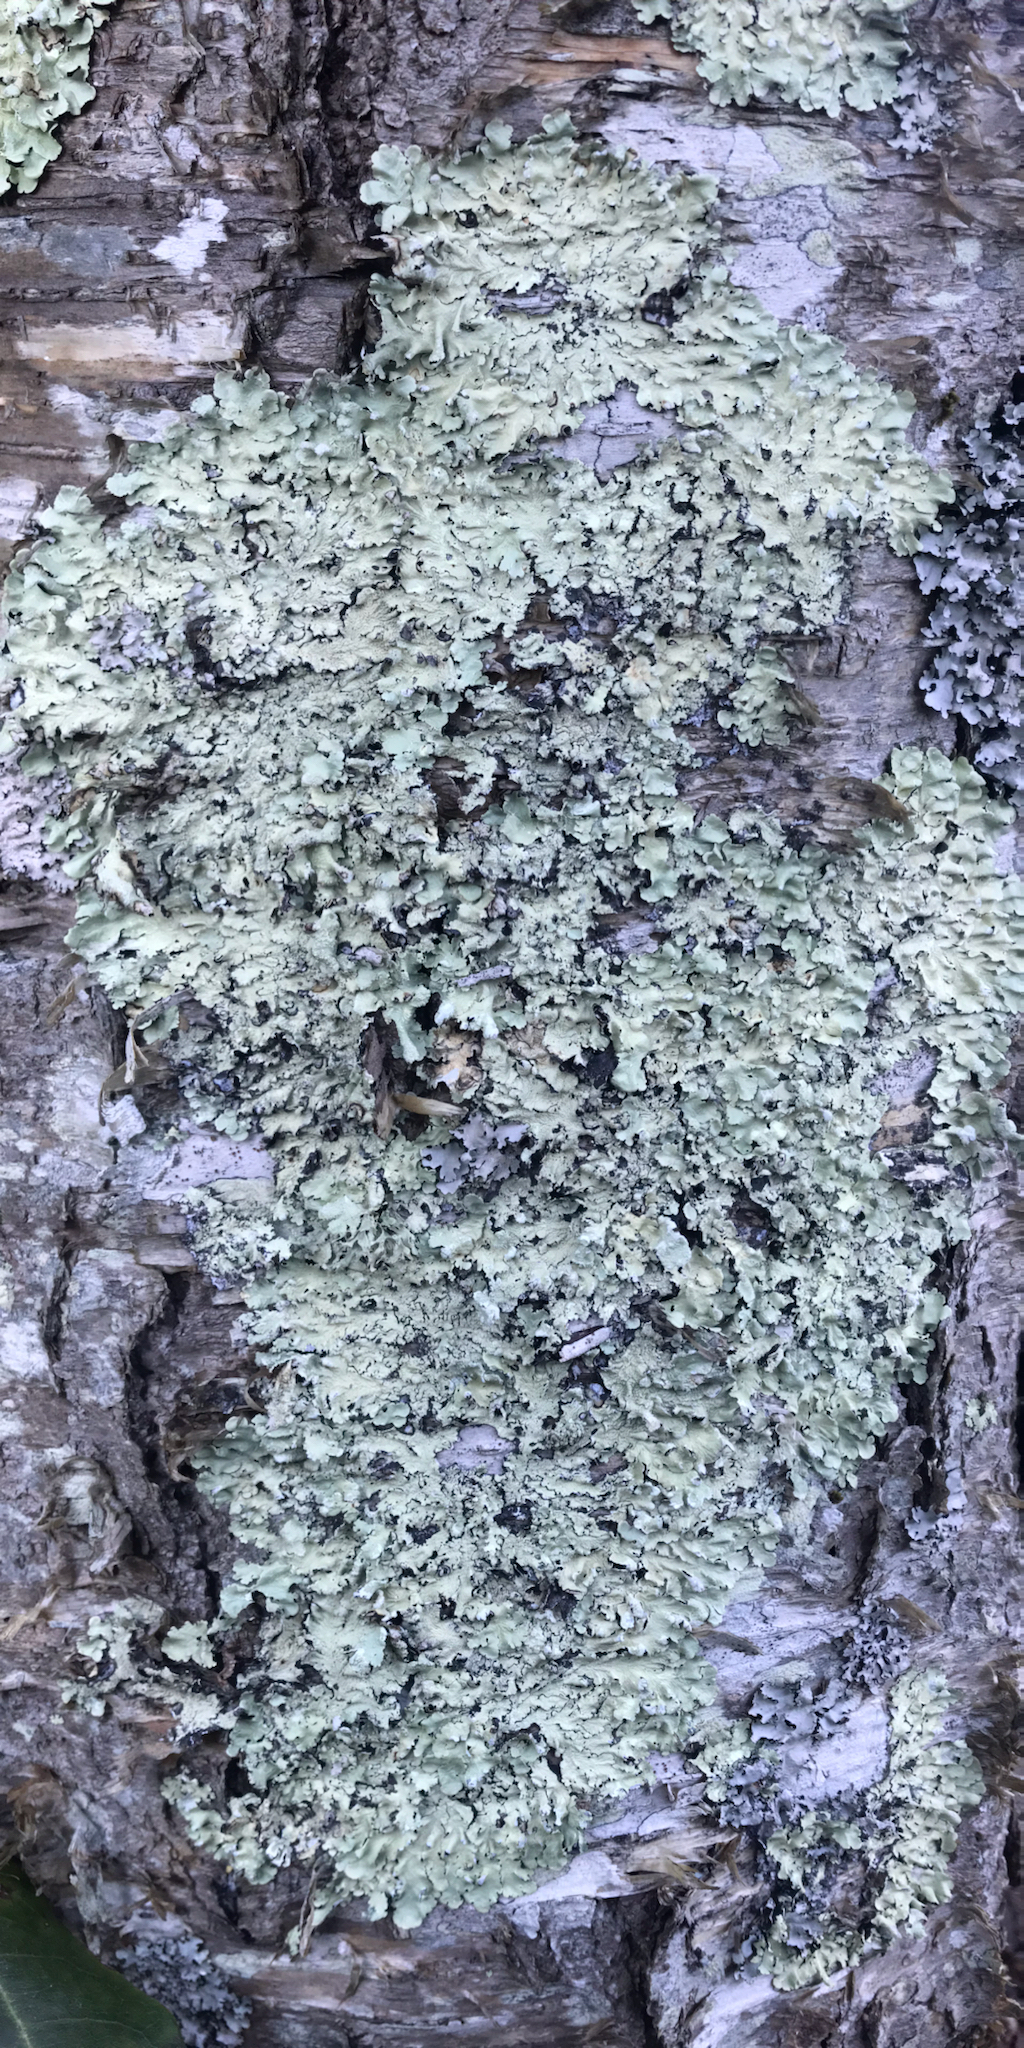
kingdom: Fungi
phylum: Ascomycota
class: Lecanoromycetes
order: Lecanorales
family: Parmeliaceae
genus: Flavoparmelia
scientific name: Flavoparmelia caperata
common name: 40-mile per hour lichen
